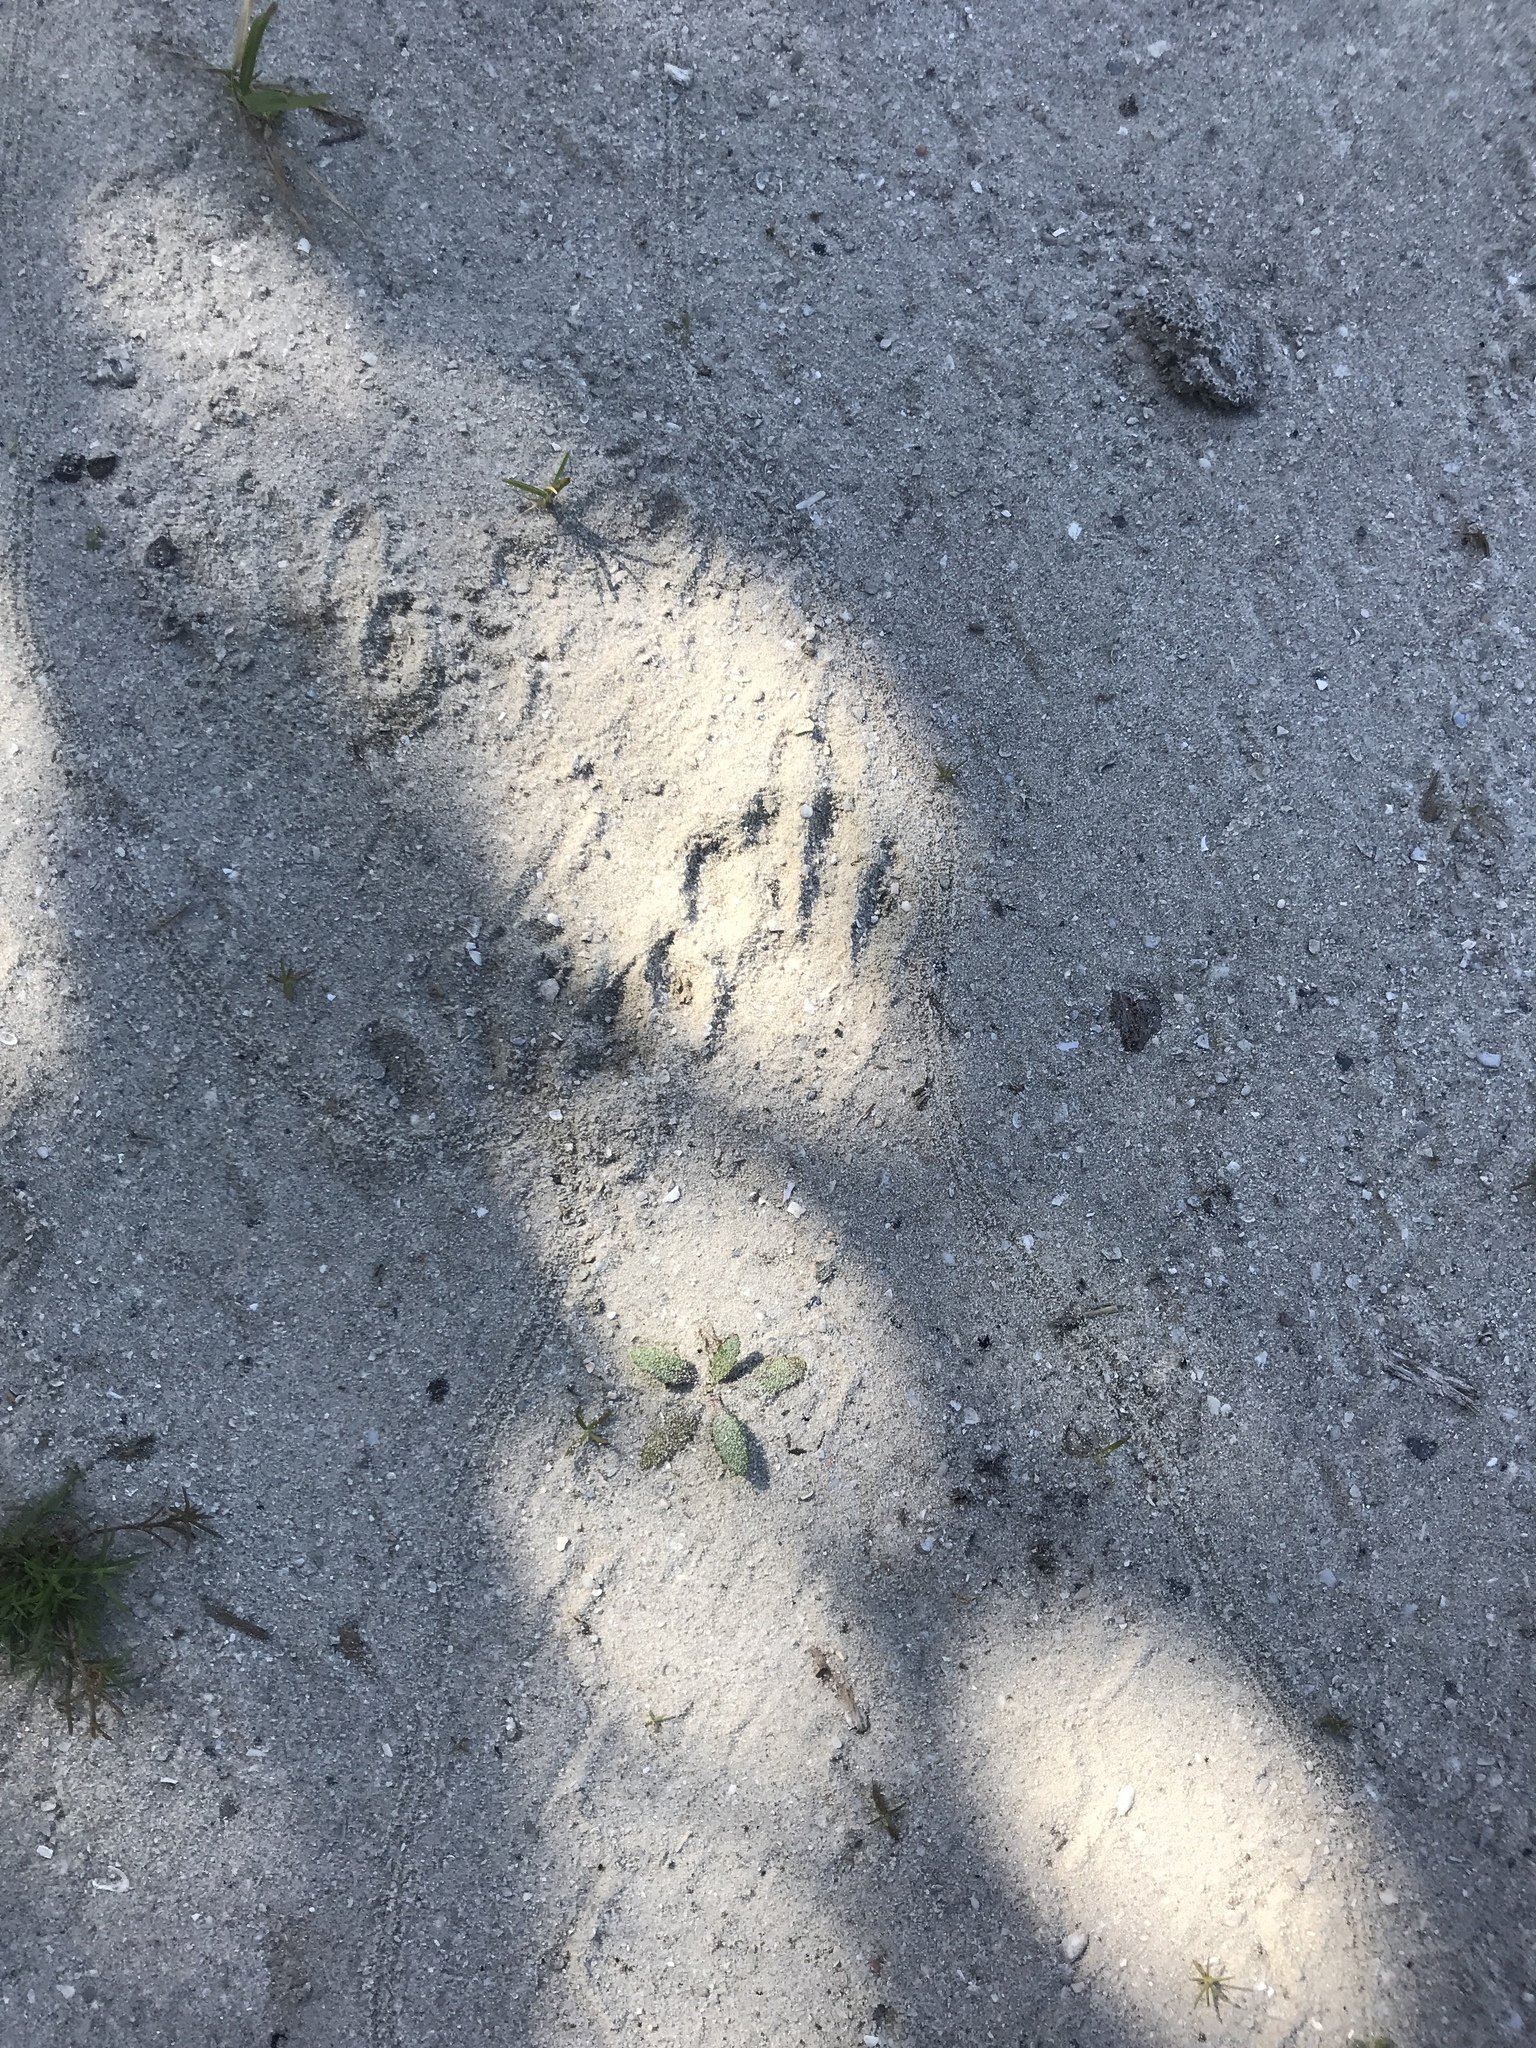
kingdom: Animalia
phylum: Chordata
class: Mammalia
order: Carnivora
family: Procyonidae
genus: Procyon
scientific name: Procyon lotor
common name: Raccoon
